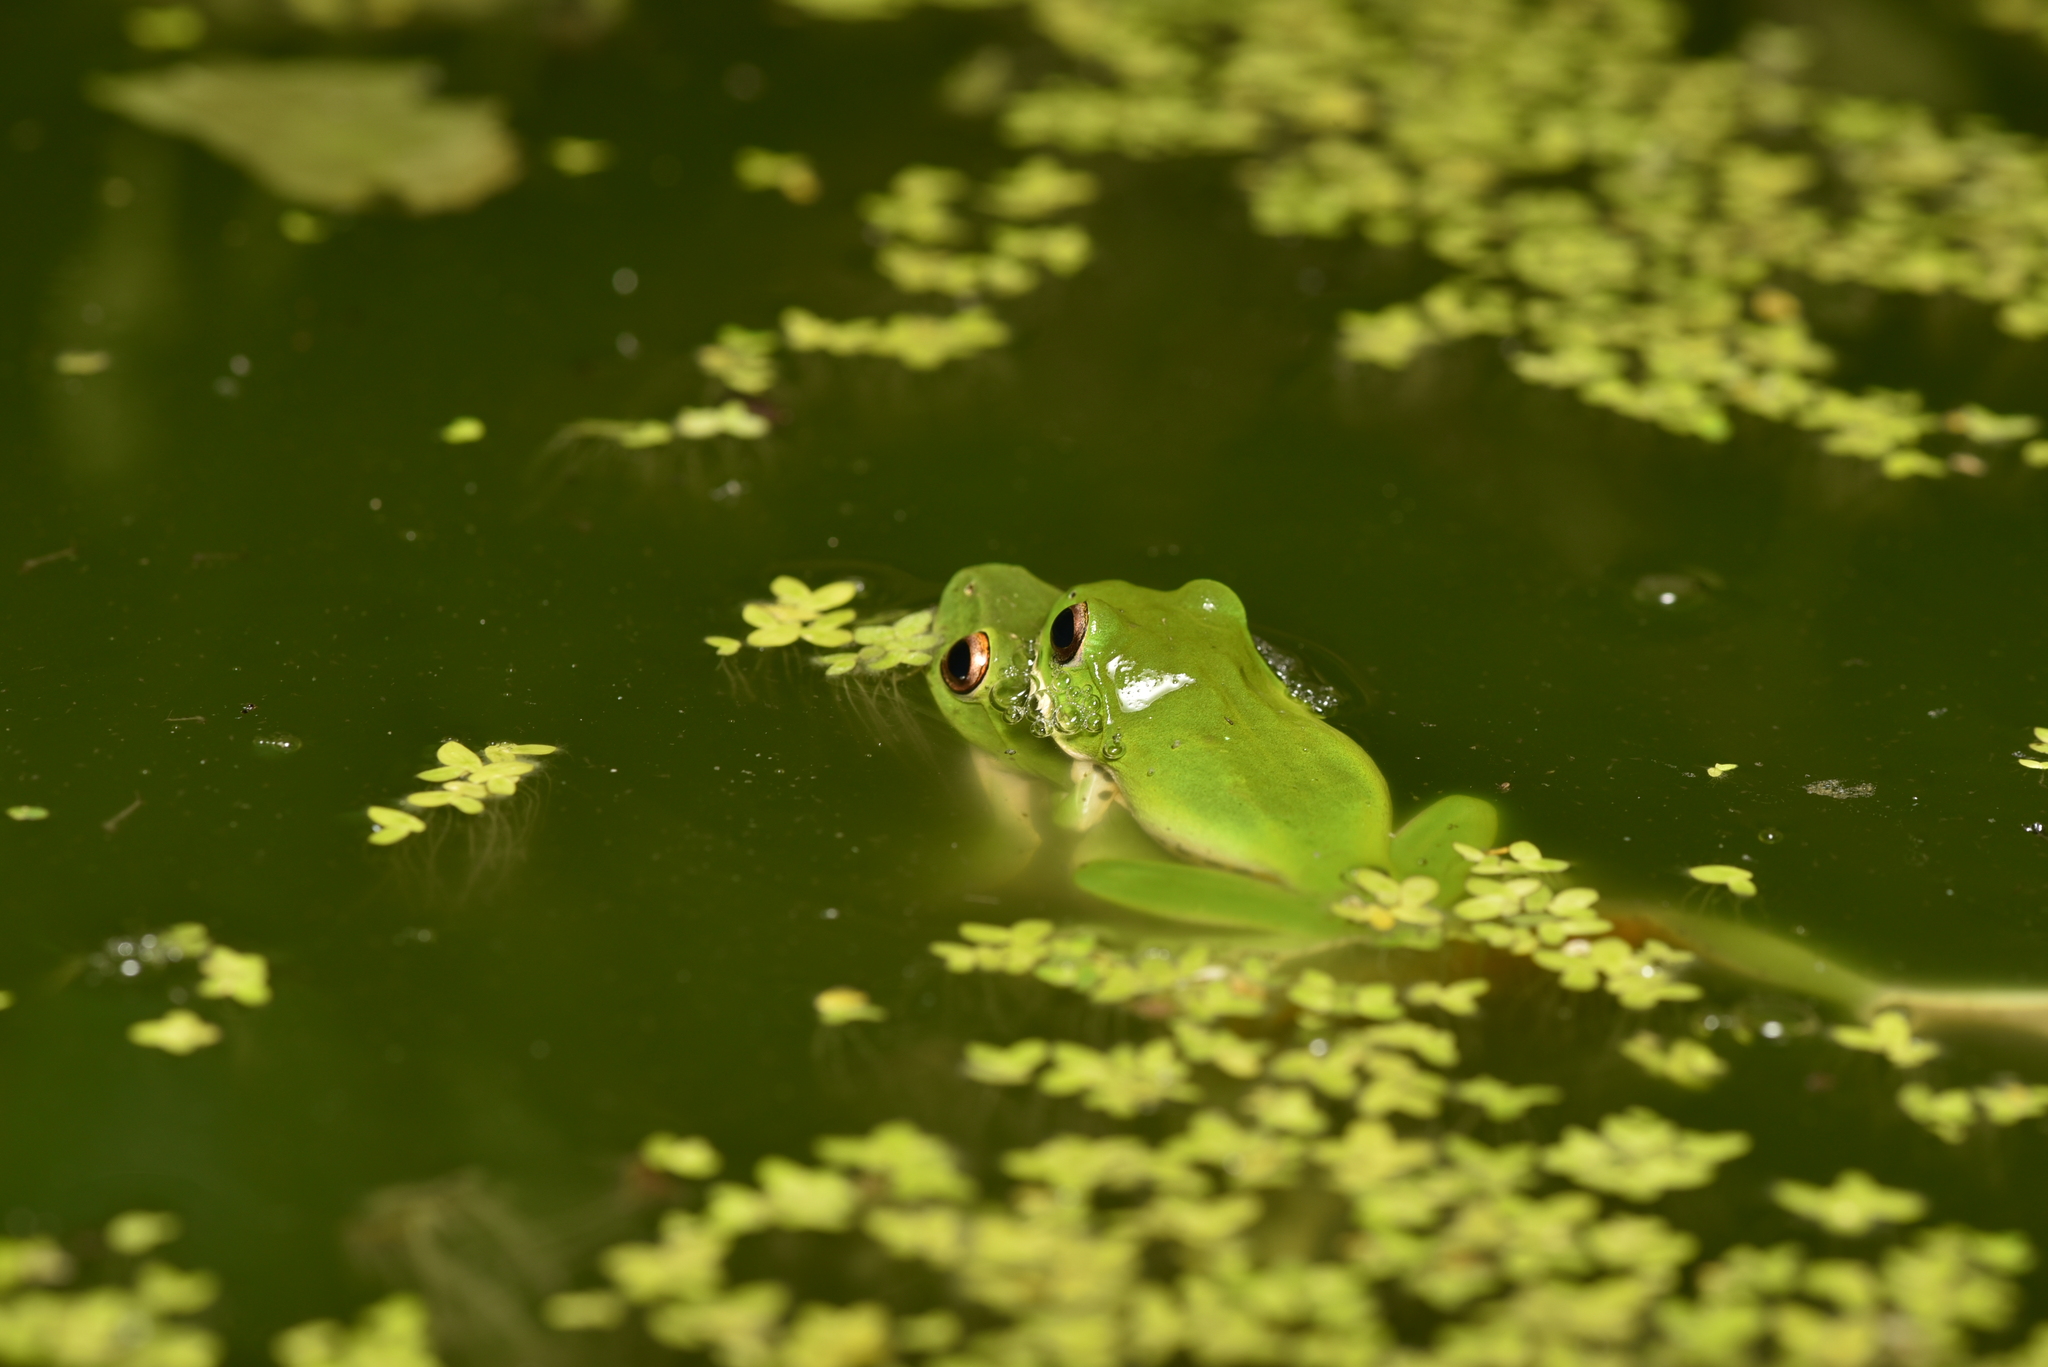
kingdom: Animalia
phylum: Chordata
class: Amphibia
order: Anura
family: Rhacophoridae
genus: Zhangixalus
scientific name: Zhangixalus moltrechti
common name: Moltrecht's treefrog
